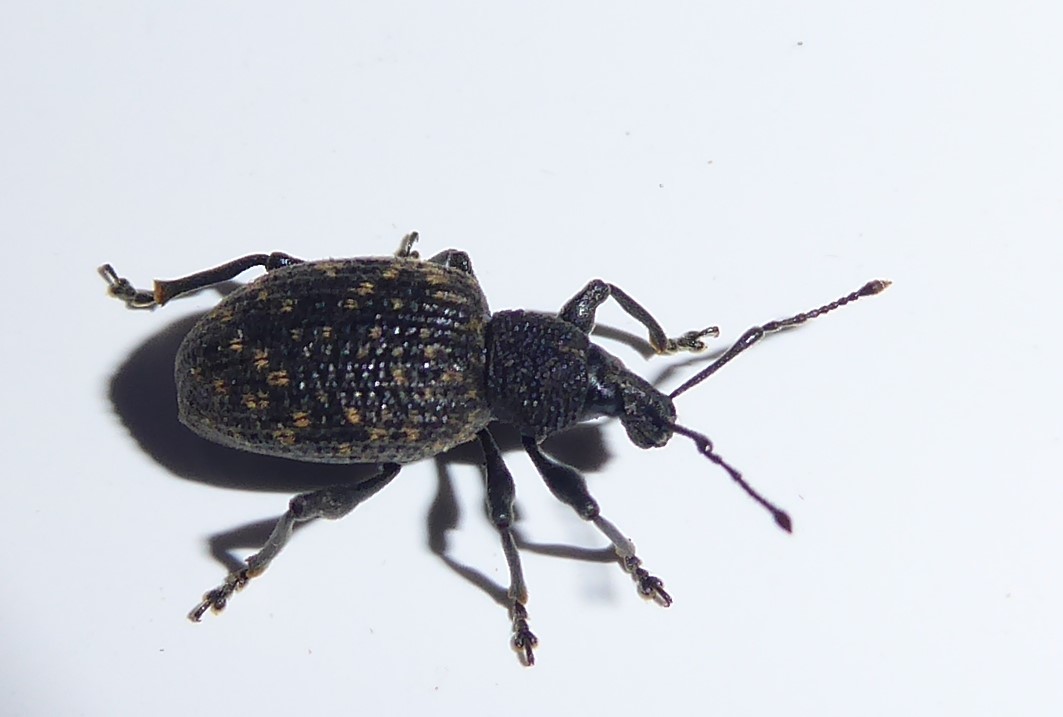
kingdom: Animalia
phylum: Arthropoda
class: Insecta
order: Coleoptera
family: Curculionidae
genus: Otiorhynchus
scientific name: Otiorhynchus sulcatus
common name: Black vine weevil
